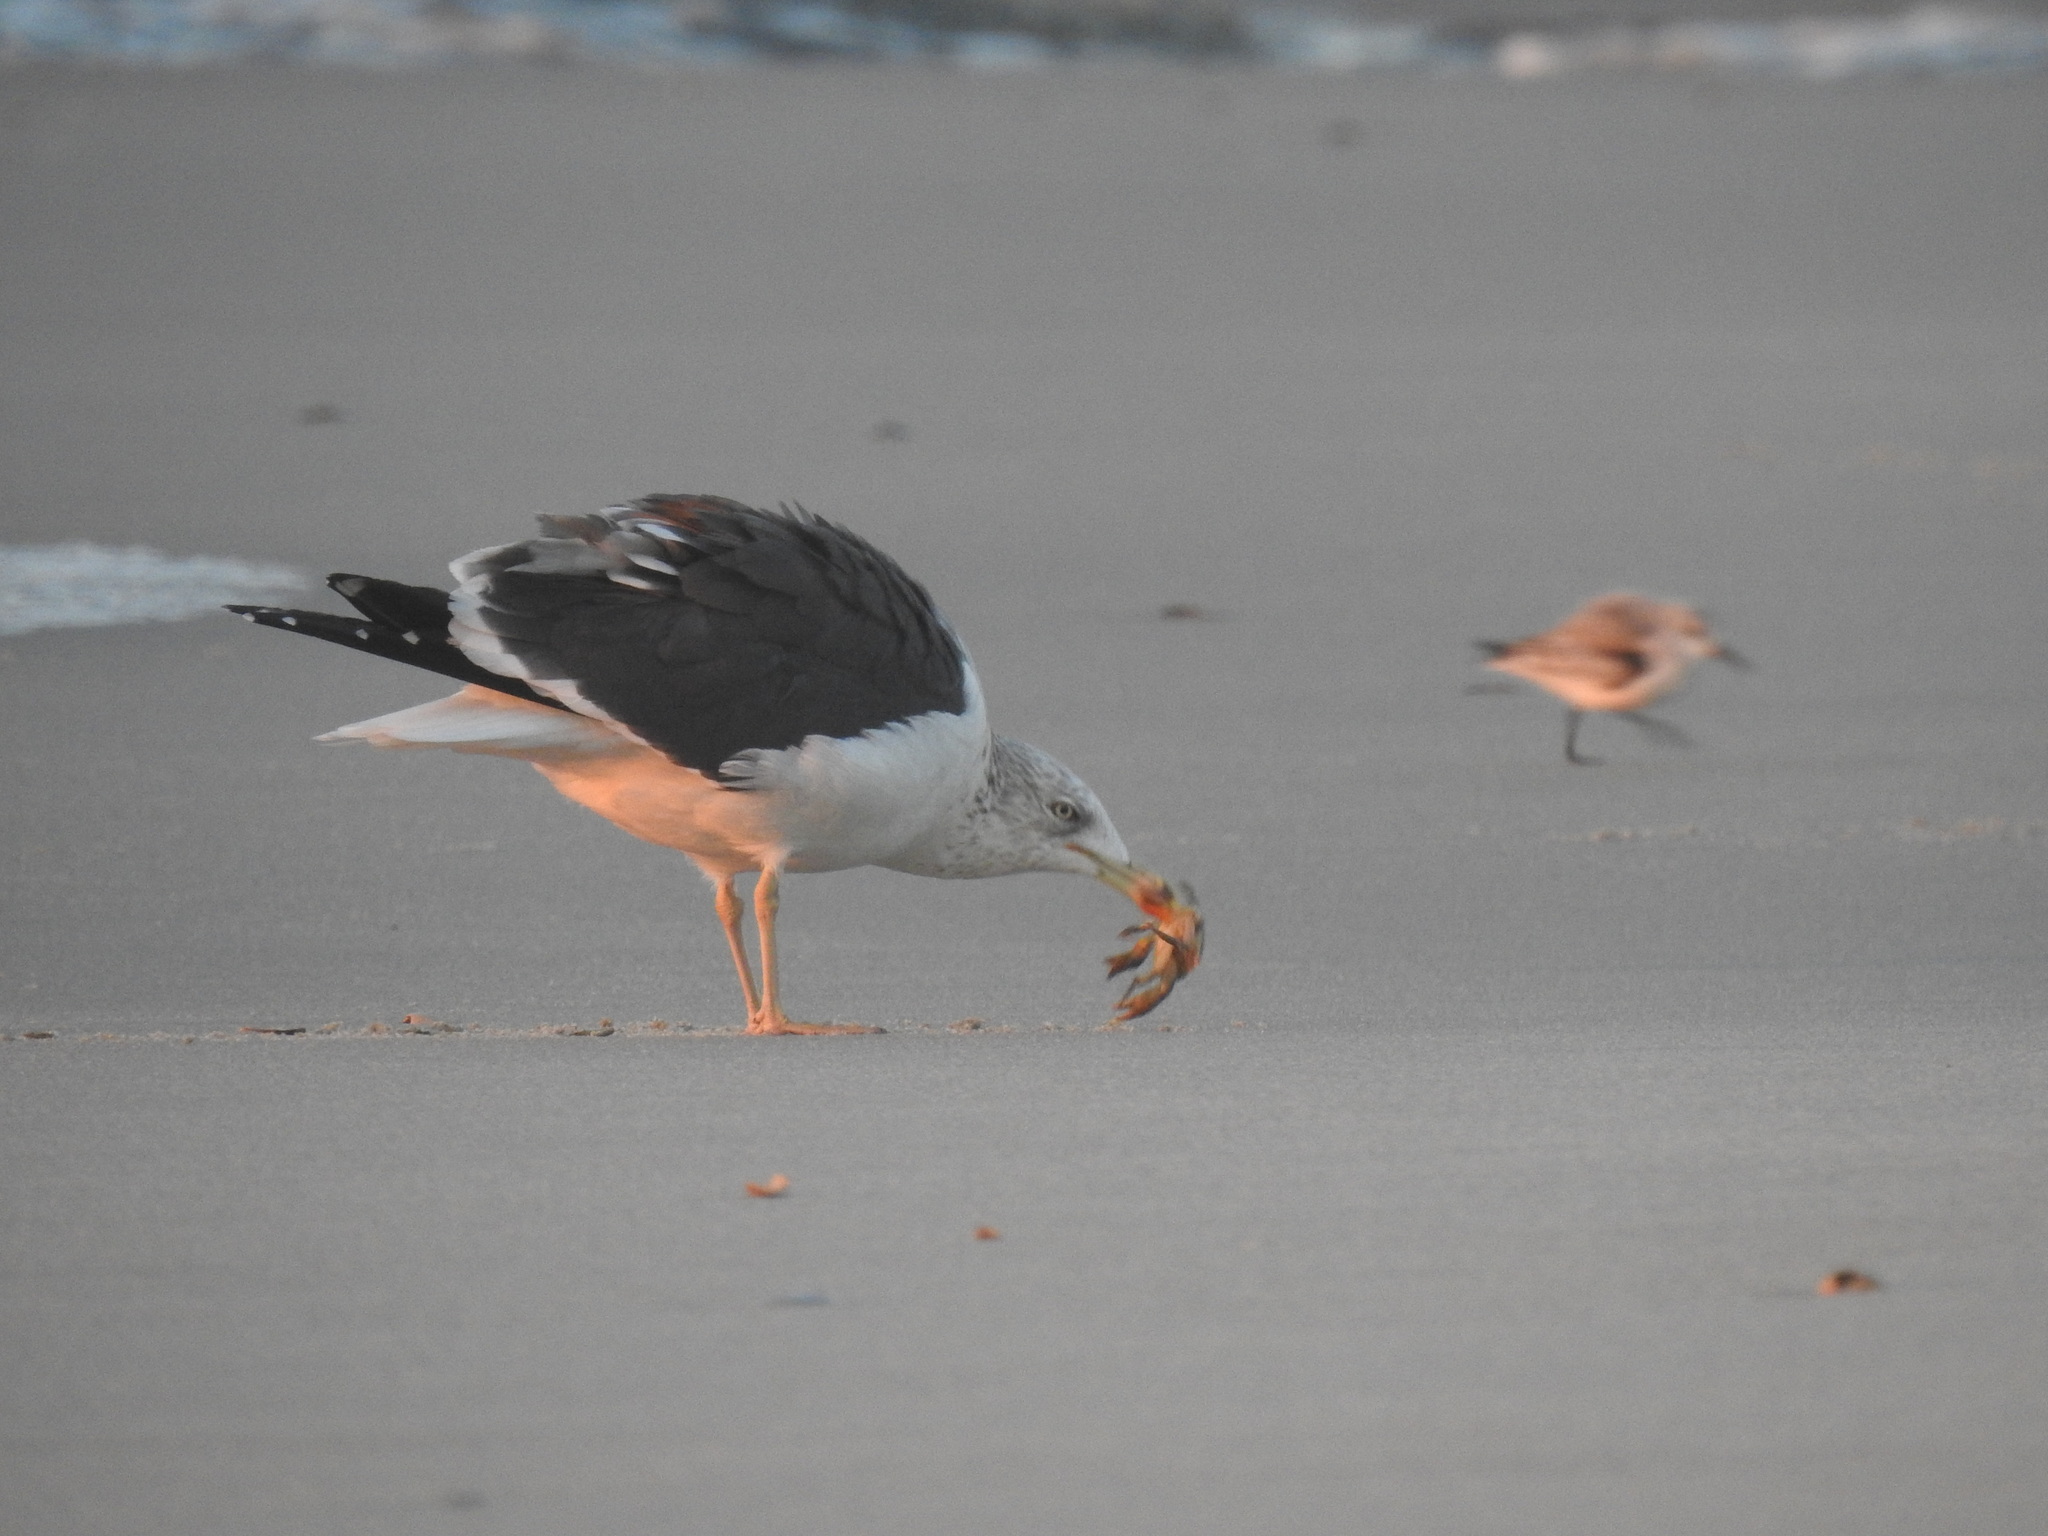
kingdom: Animalia
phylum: Arthropoda
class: Malacostraca
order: Decapoda
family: Carcinidae
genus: Carcinus
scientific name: Carcinus maenas
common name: European green crab
